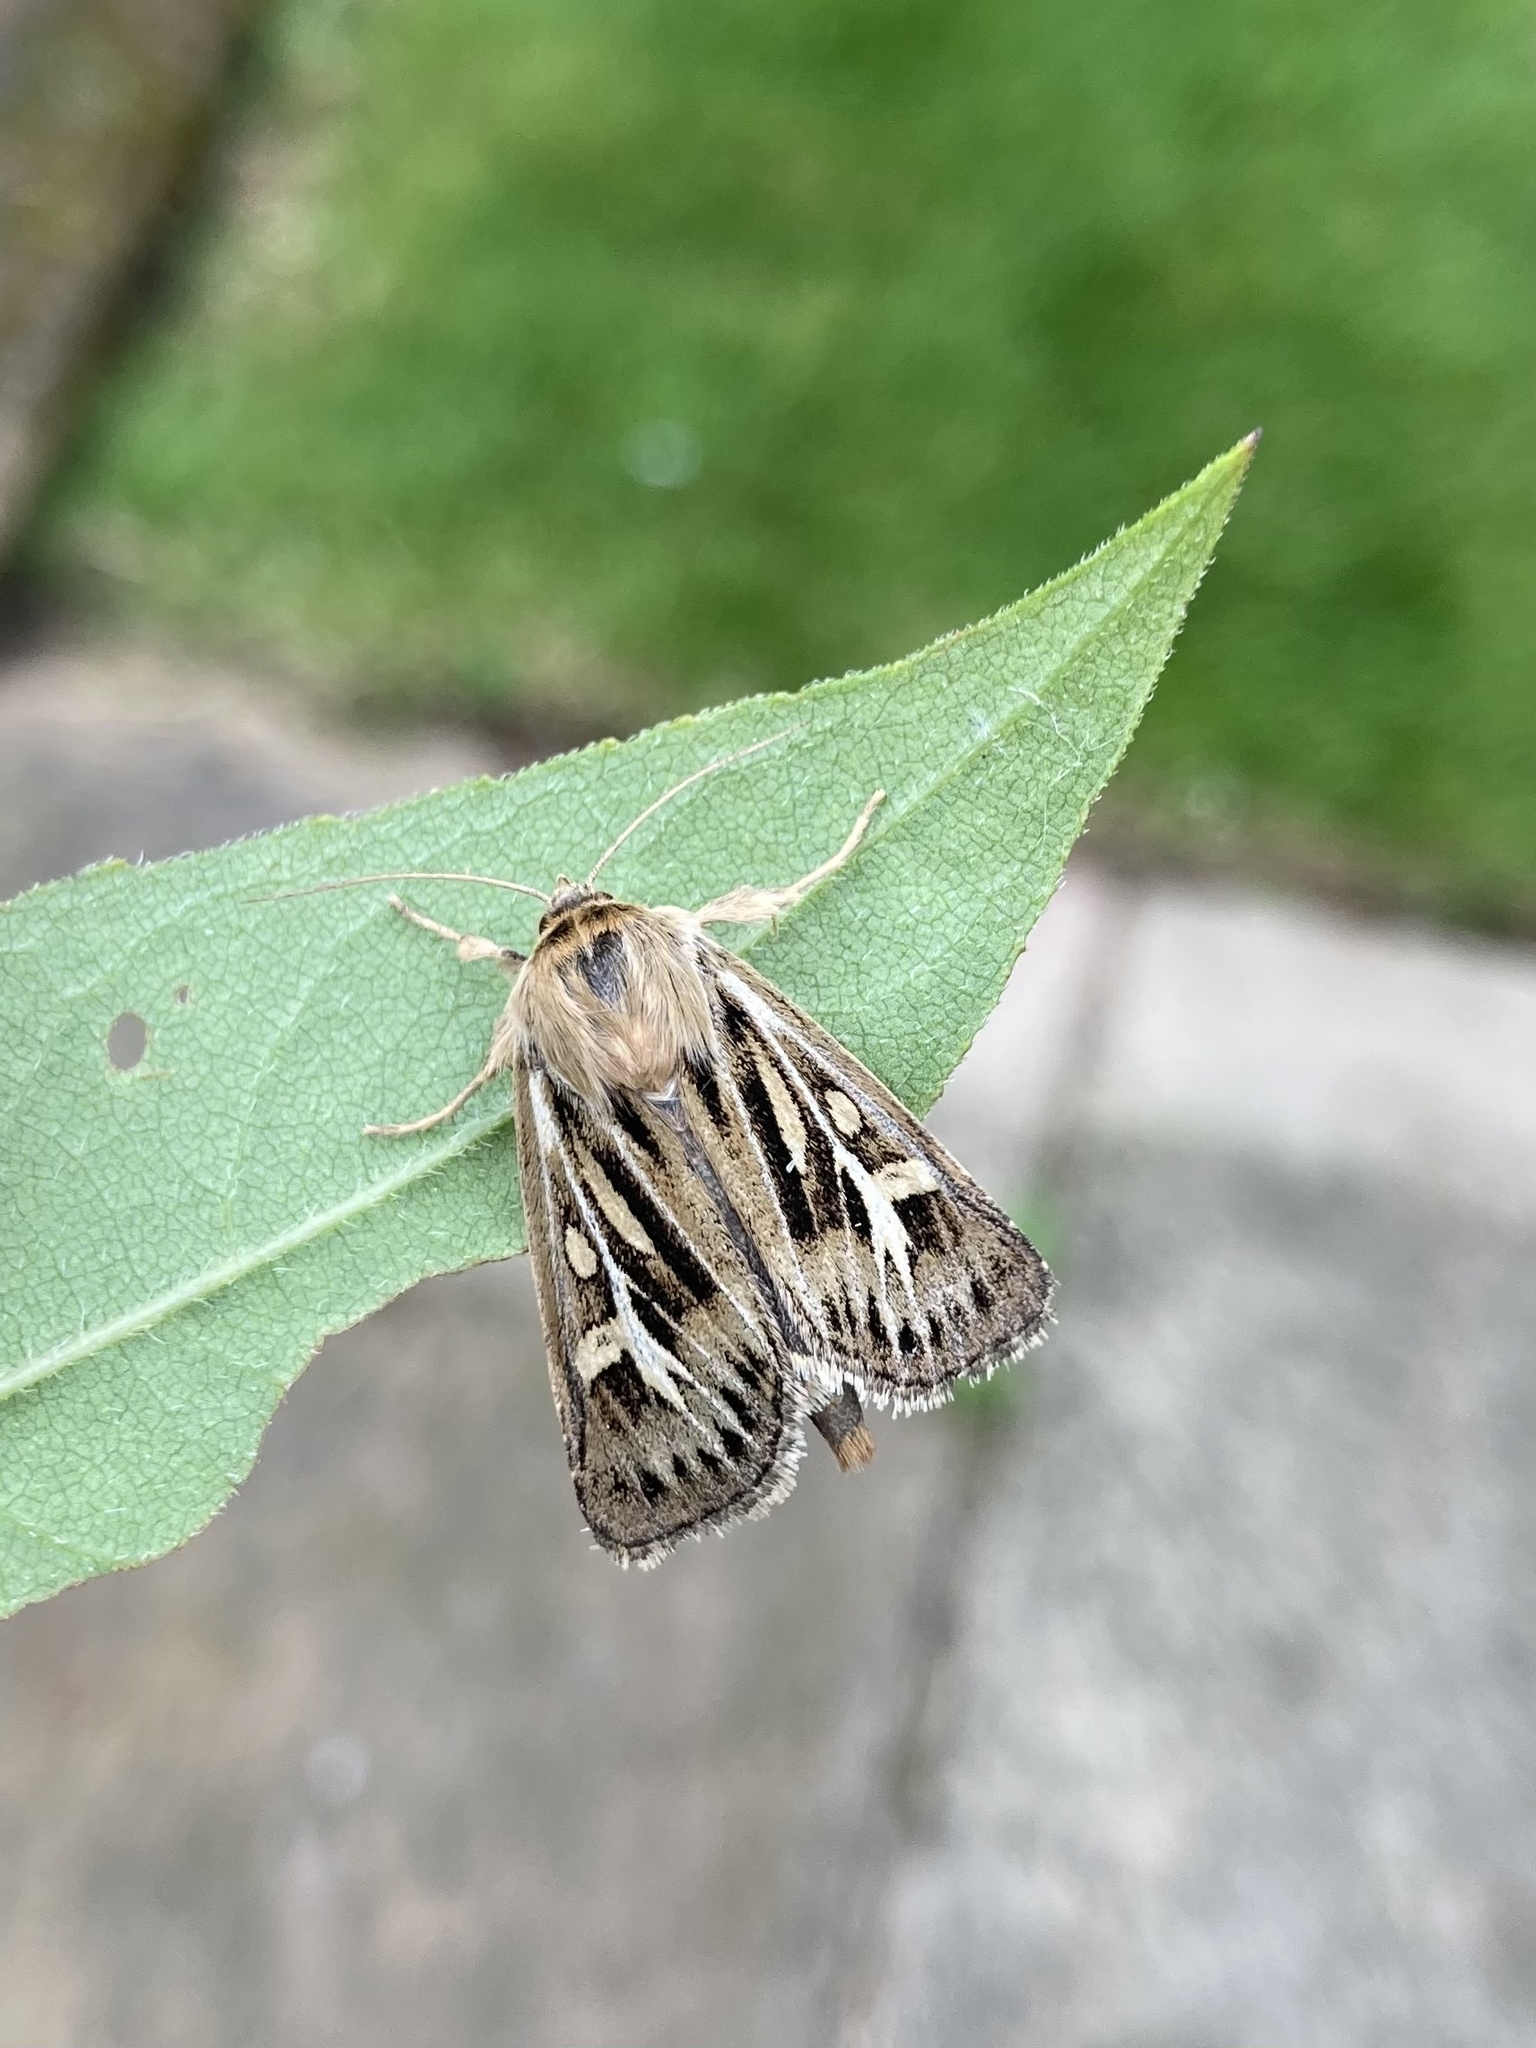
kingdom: Animalia
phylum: Arthropoda
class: Insecta
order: Lepidoptera
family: Noctuidae
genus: Cerapteryx
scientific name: Cerapteryx graminis
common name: Antler moth
